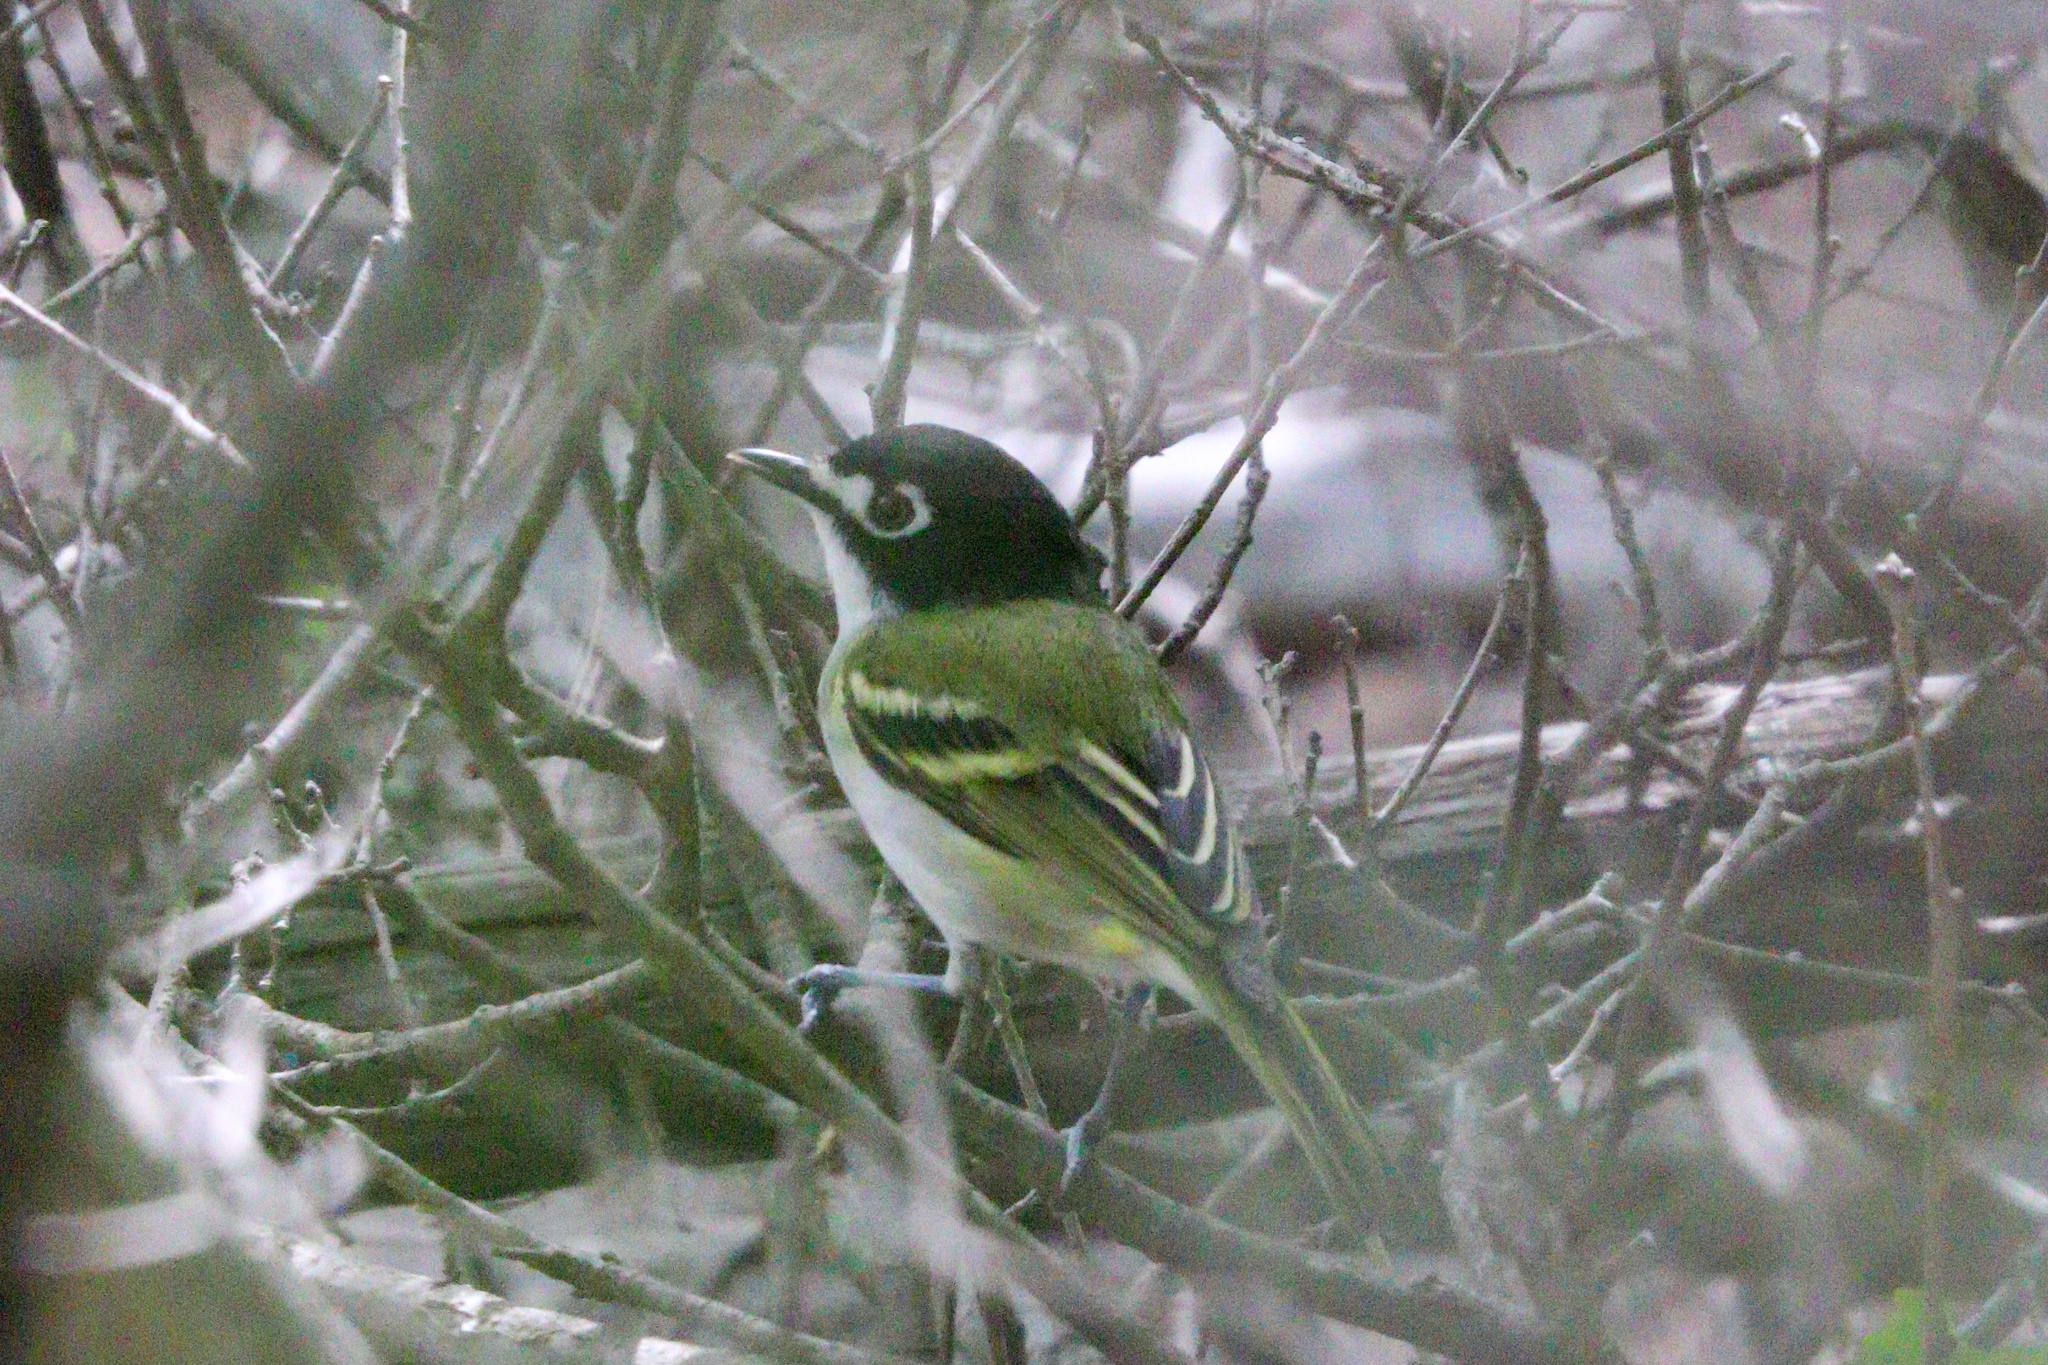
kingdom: Animalia
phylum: Chordata
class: Aves
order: Passeriformes
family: Vireonidae
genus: Vireo
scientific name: Vireo atricapilla
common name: Black-capped vireo
